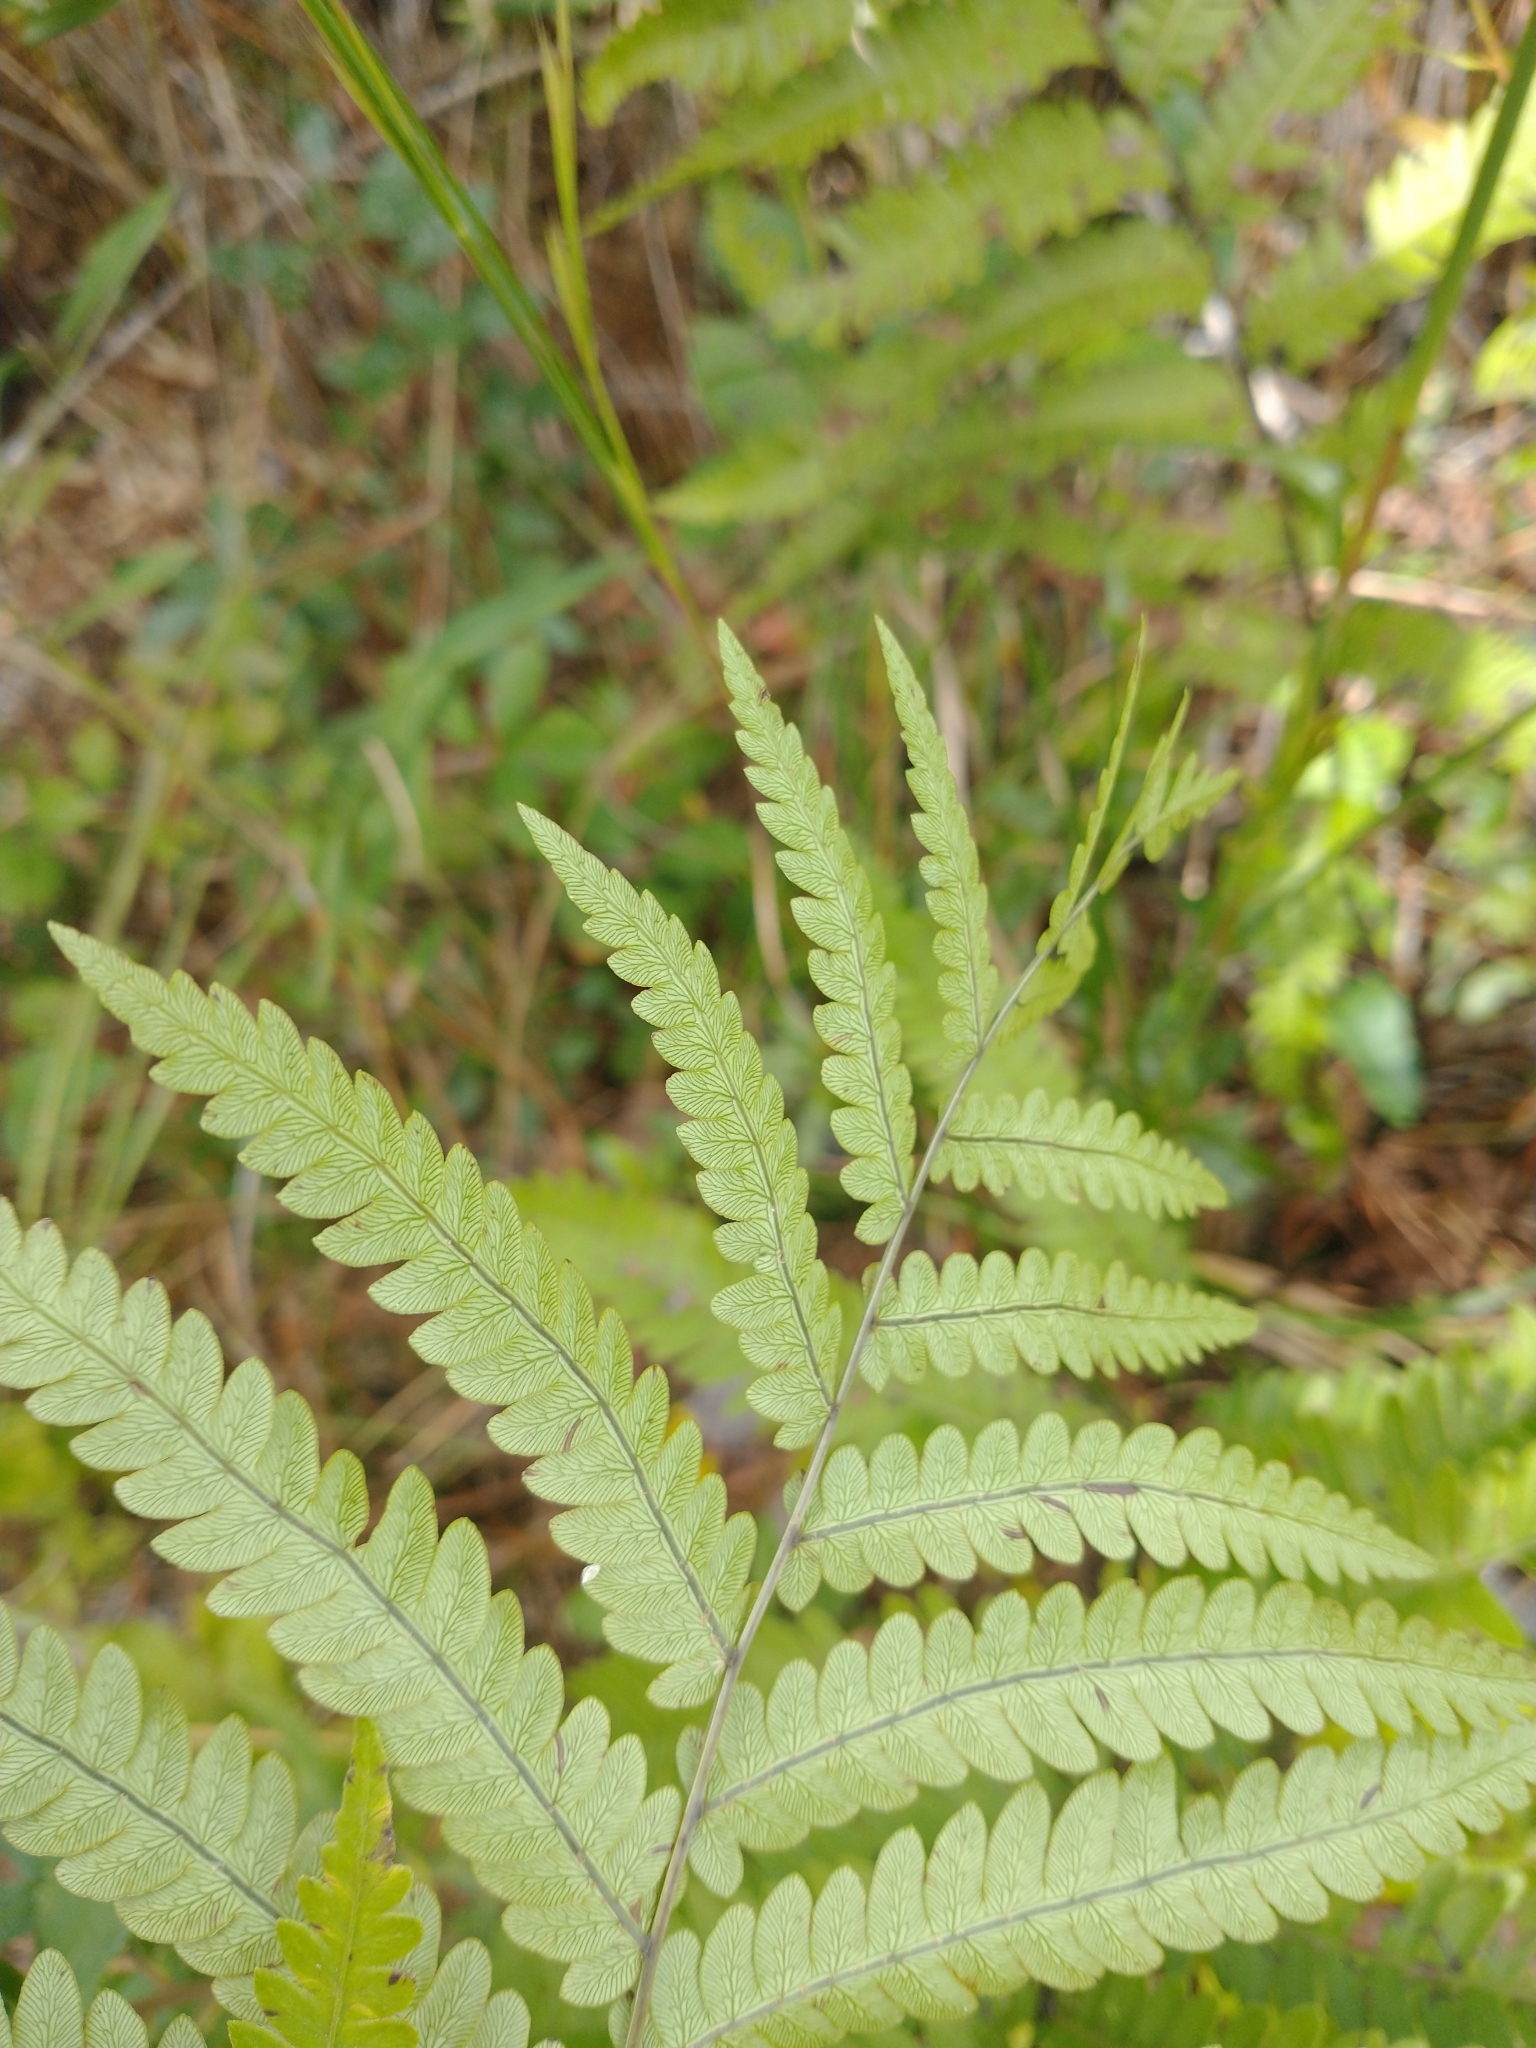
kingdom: Plantae
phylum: Tracheophyta
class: Polypodiopsida
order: Polypodiales
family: Blechnaceae
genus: Anchistea
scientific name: Anchistea virginica
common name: Virginia chain fern
